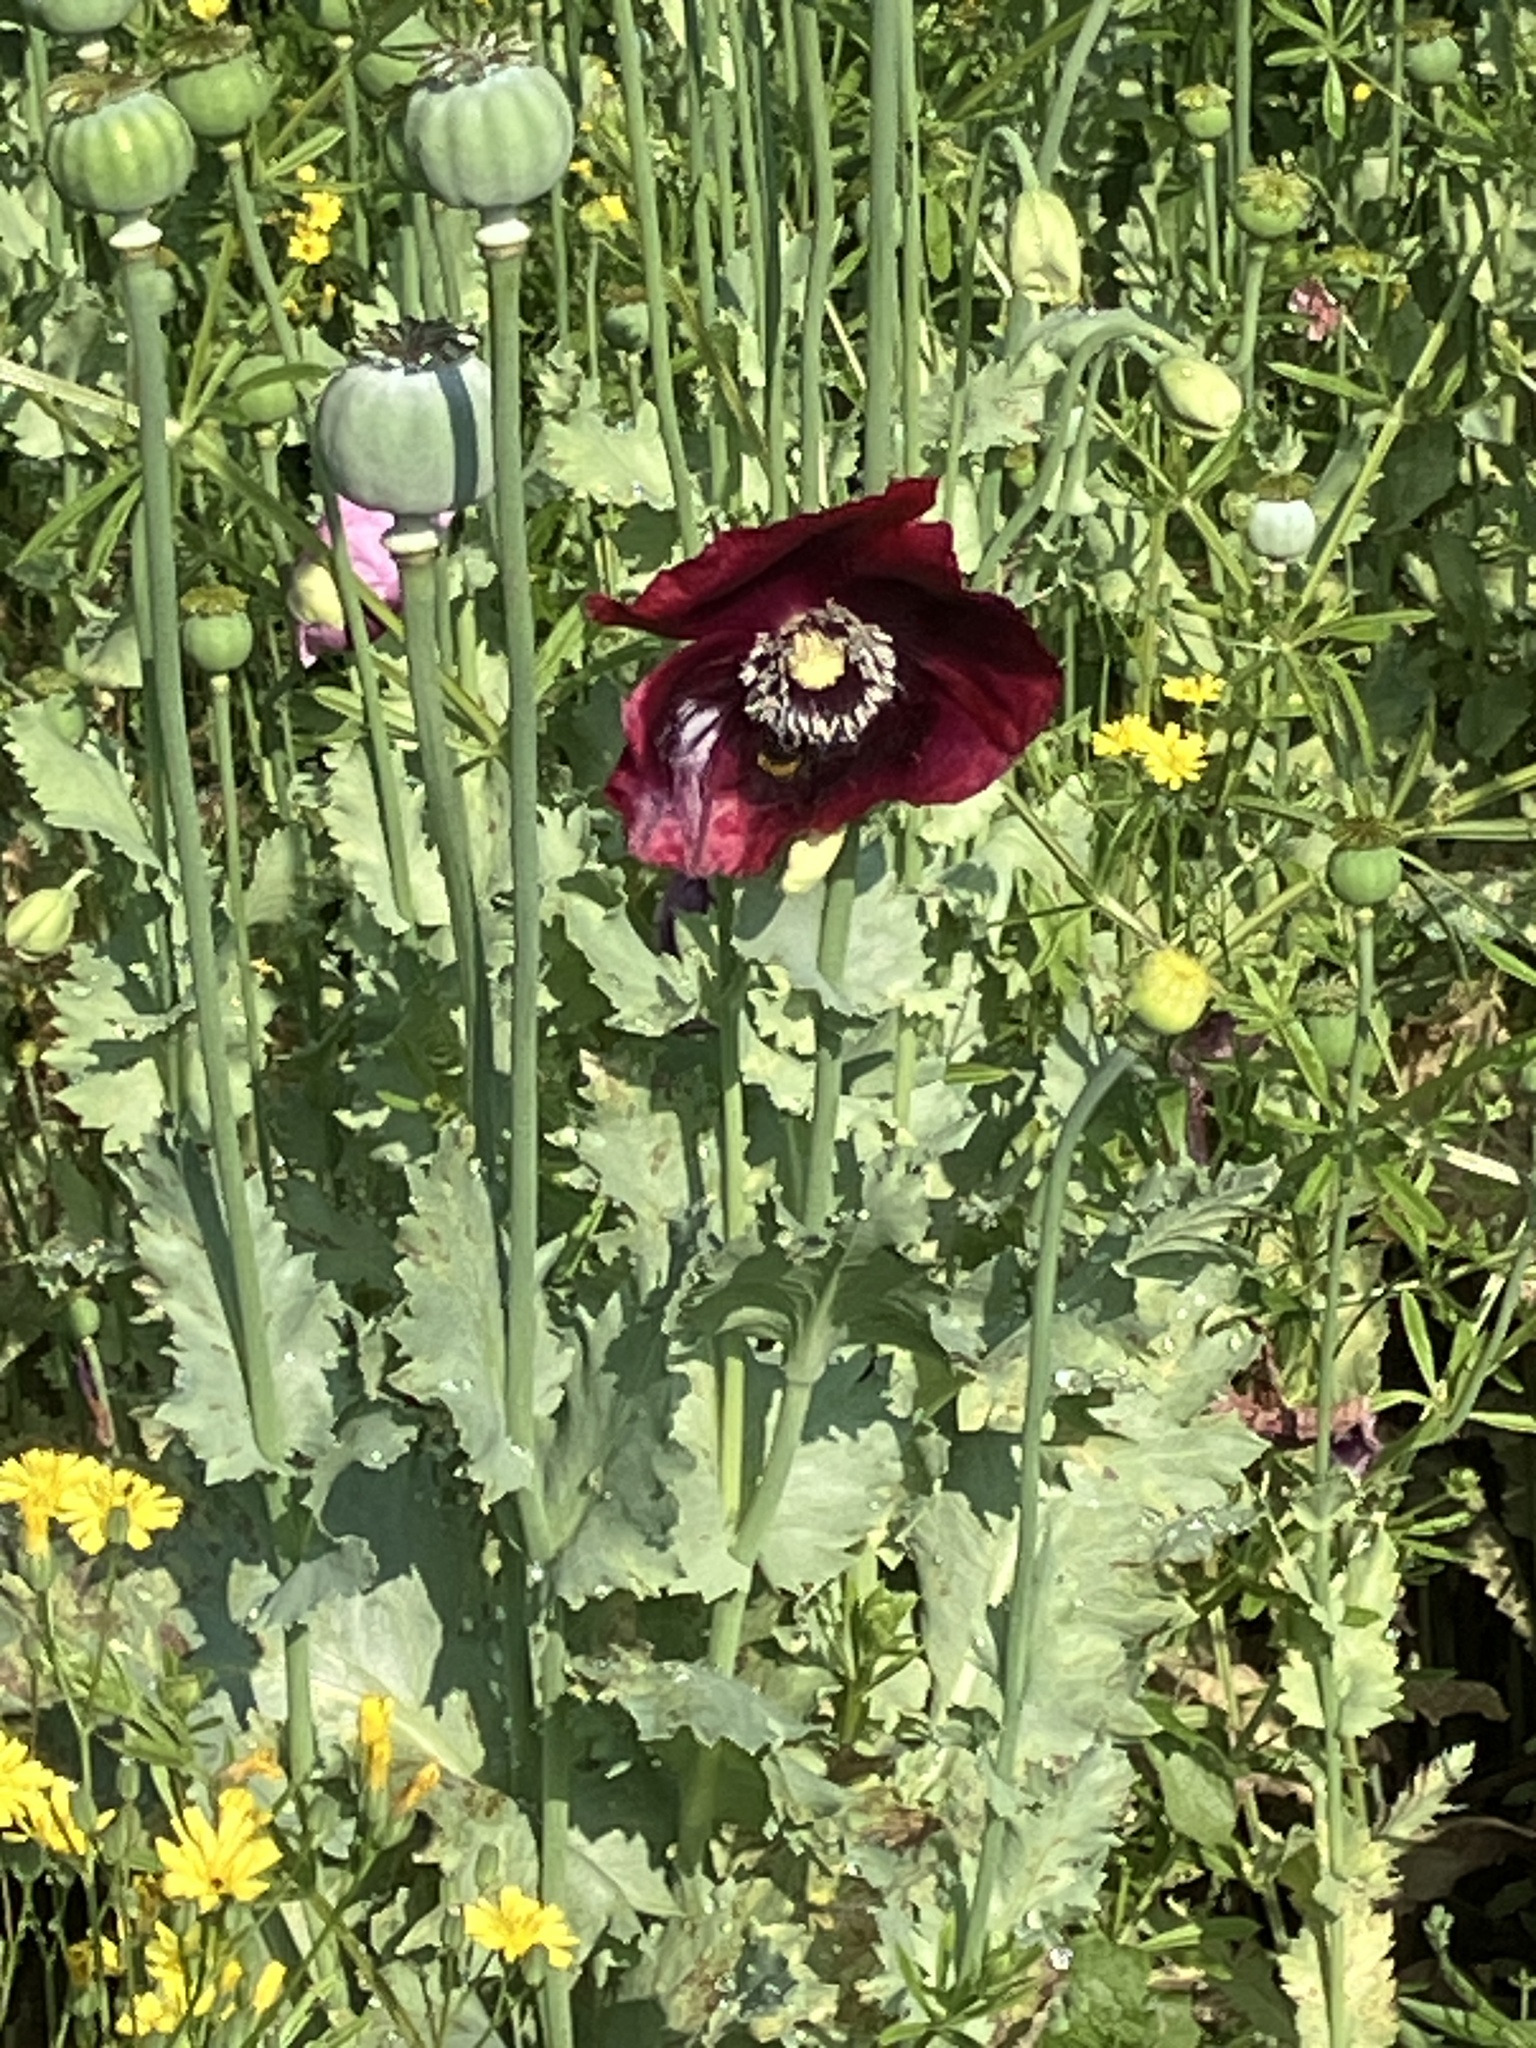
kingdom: Plantae
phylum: Tracheophyta
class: Magnoliopsida
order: Ranunculales
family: Papaveraceae
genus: Papaver
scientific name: Papaver somniferum
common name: Opium poppy
